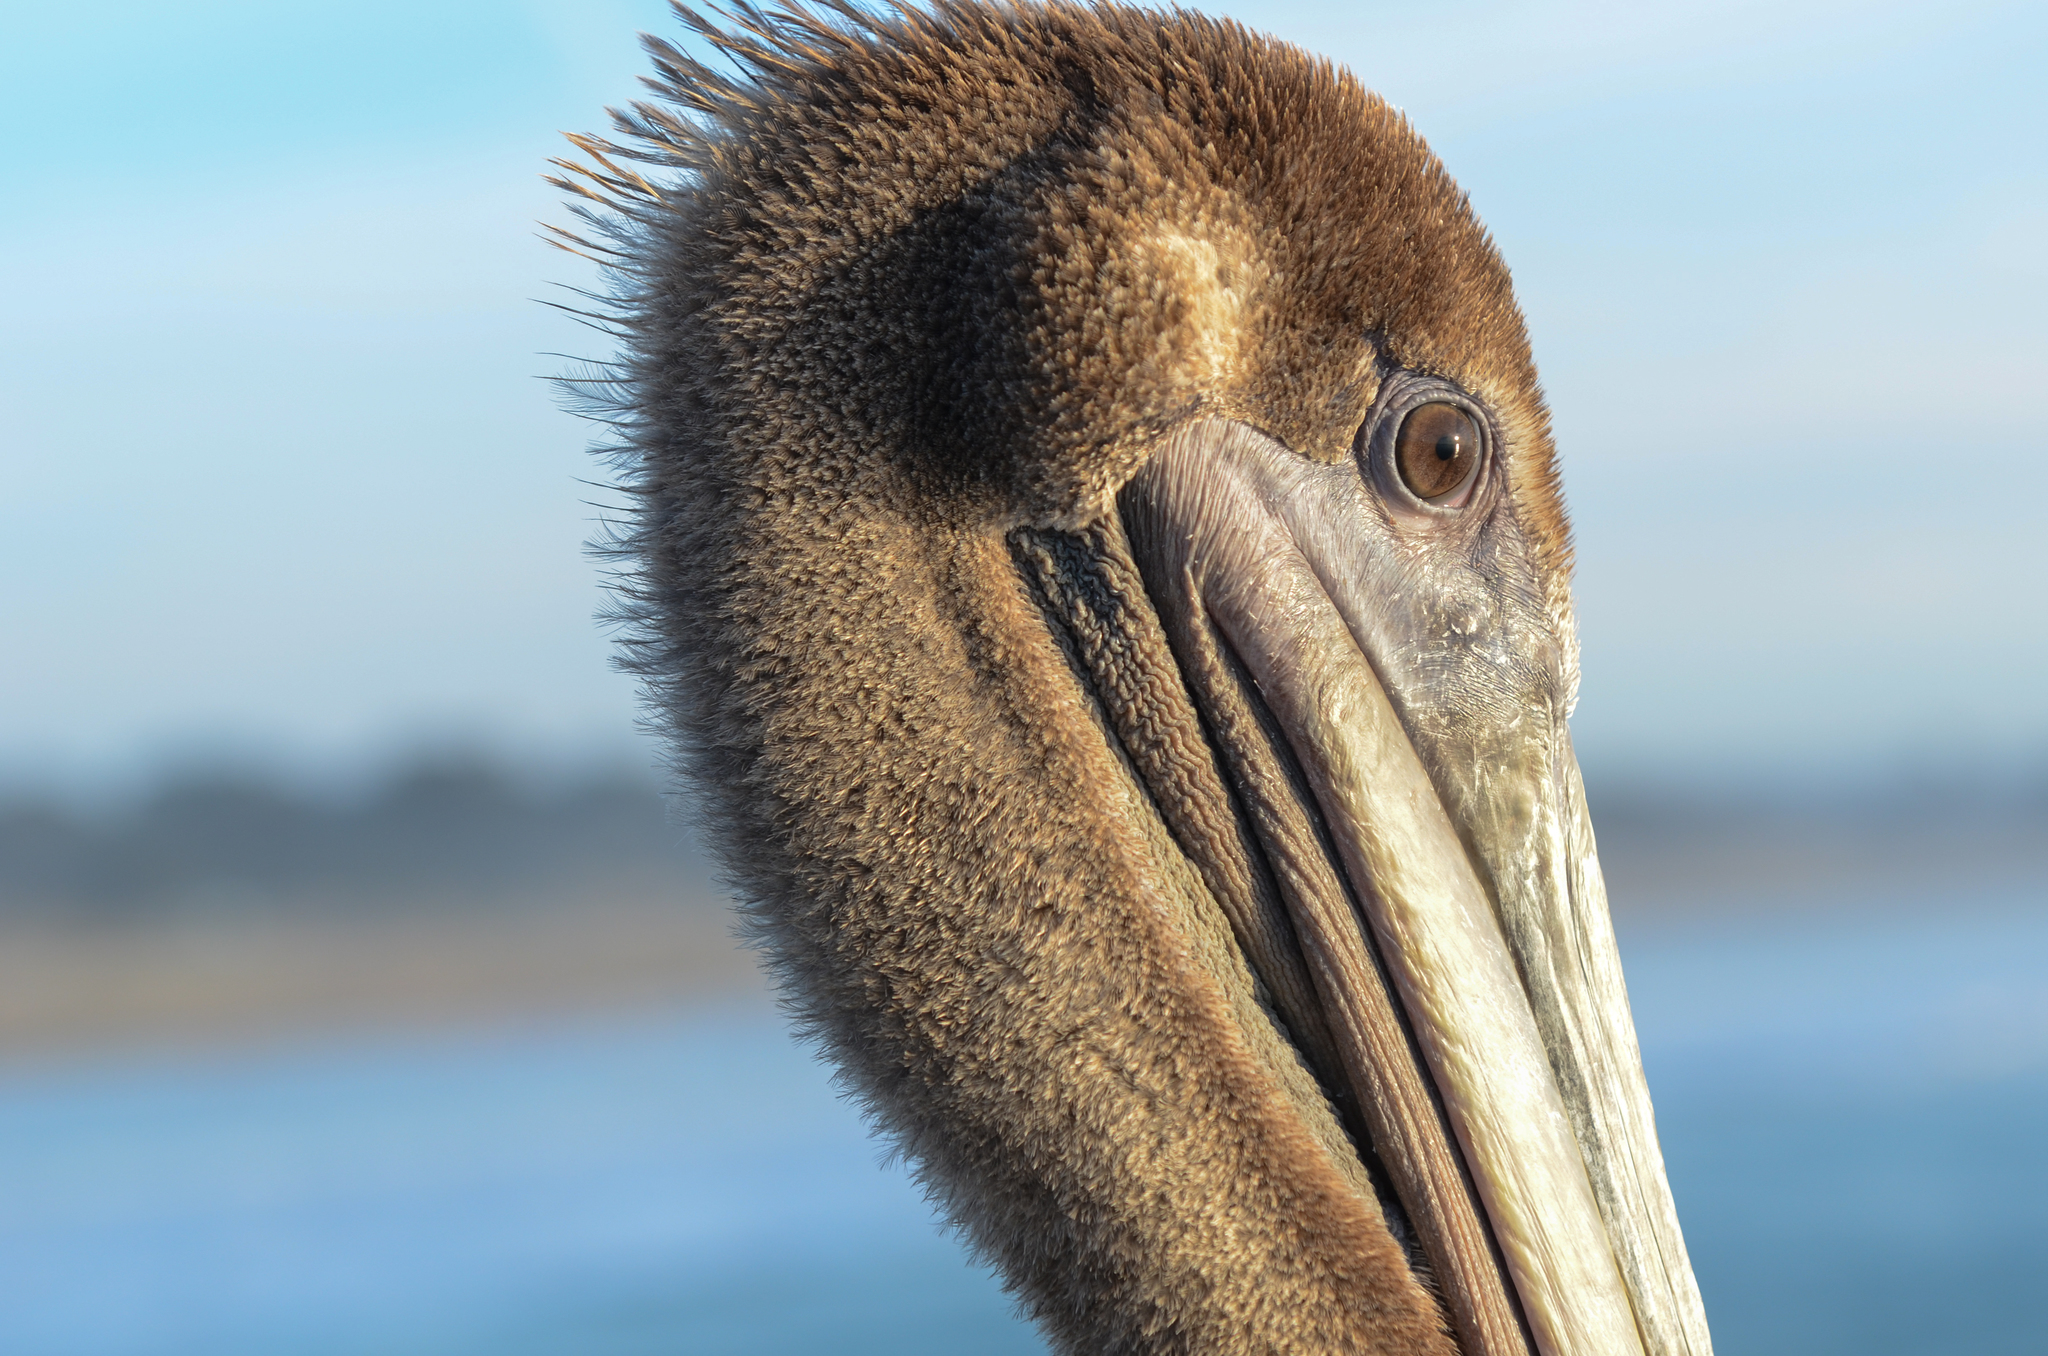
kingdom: Animalia
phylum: Chordata
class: Aves
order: Pelecaniformes
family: Pelecanidae
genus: Pelecanus
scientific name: Pelecanus occidentalis
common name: Brown pelican
